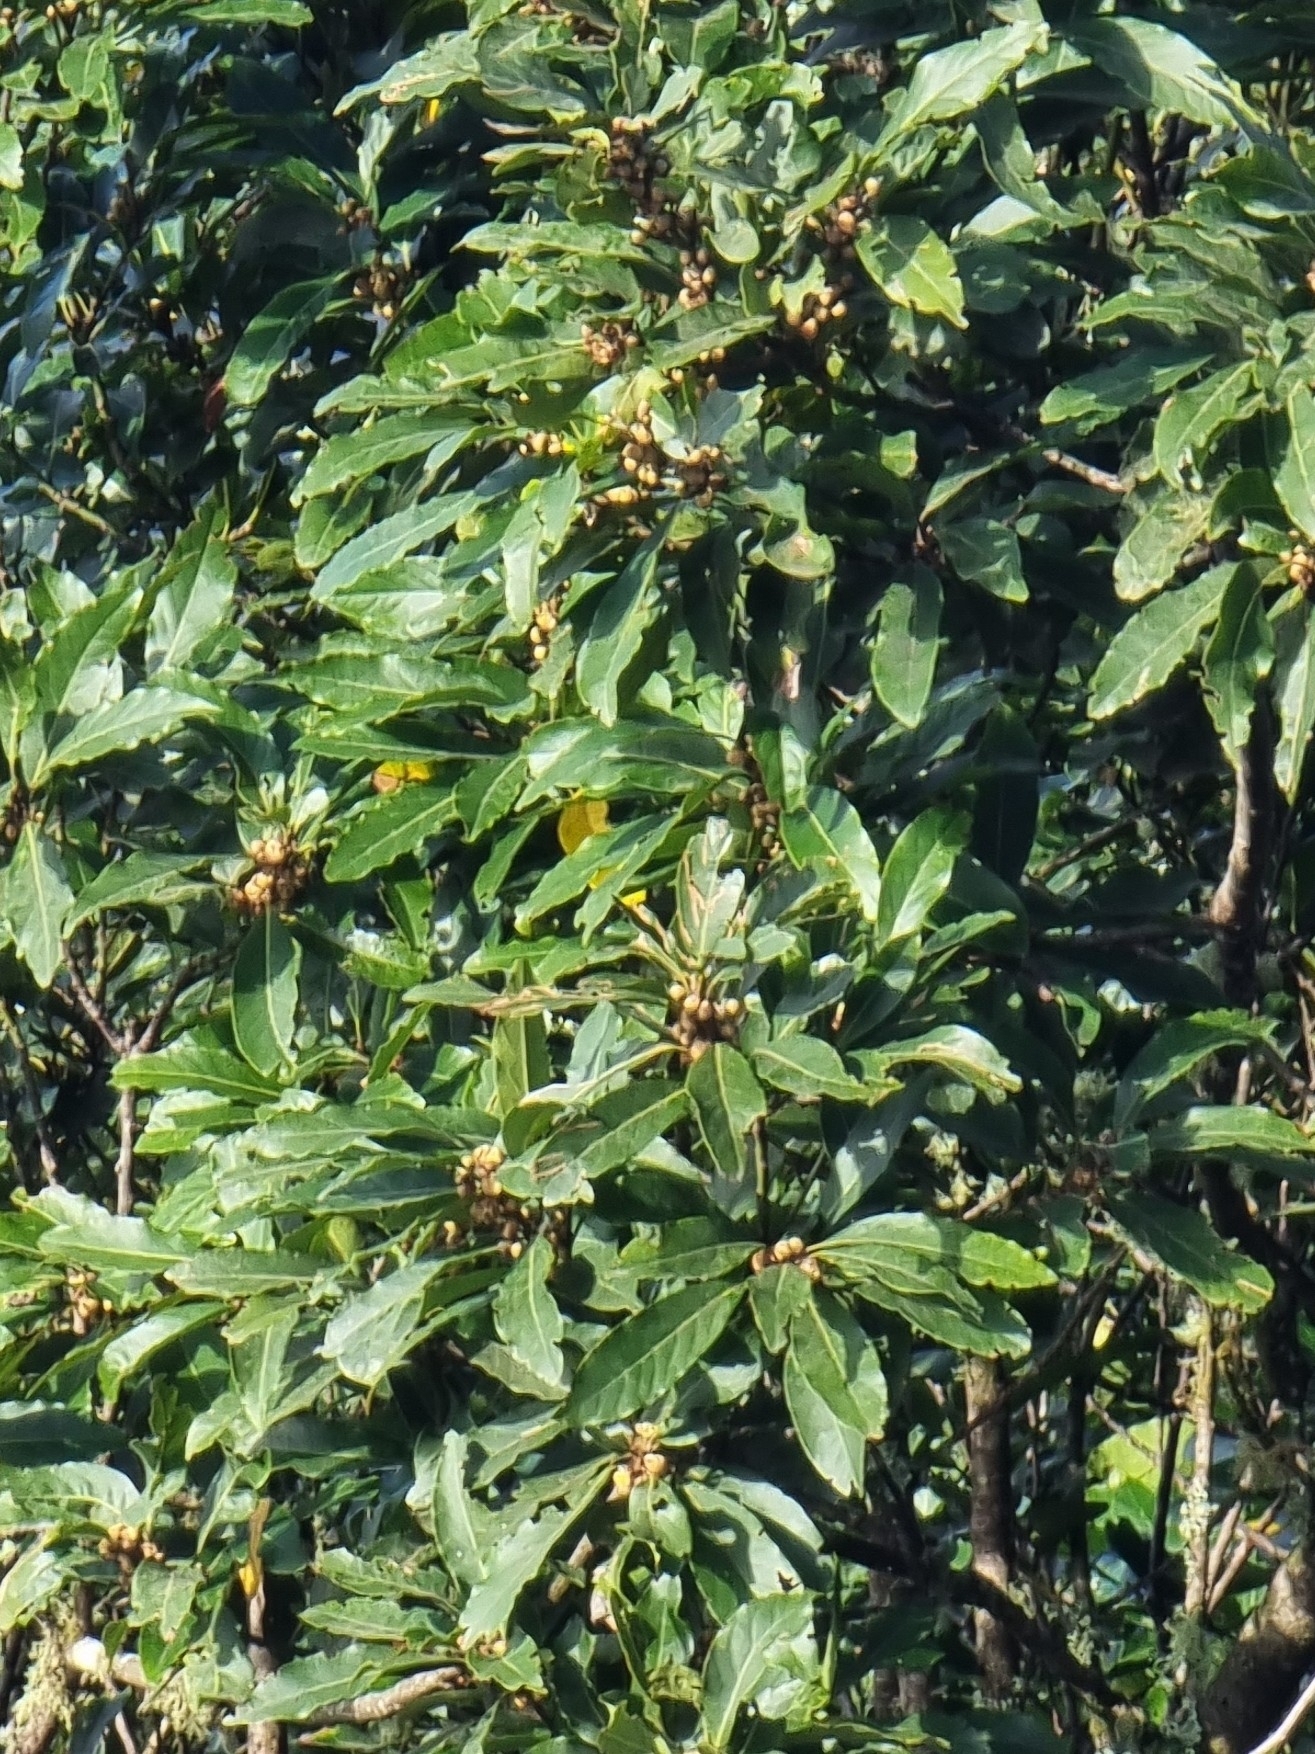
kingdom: Plantae
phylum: Tracheophyta
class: Magnoliopsida
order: Laurales
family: Lauraceae
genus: Laurus
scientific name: Laurus novocanariensis
